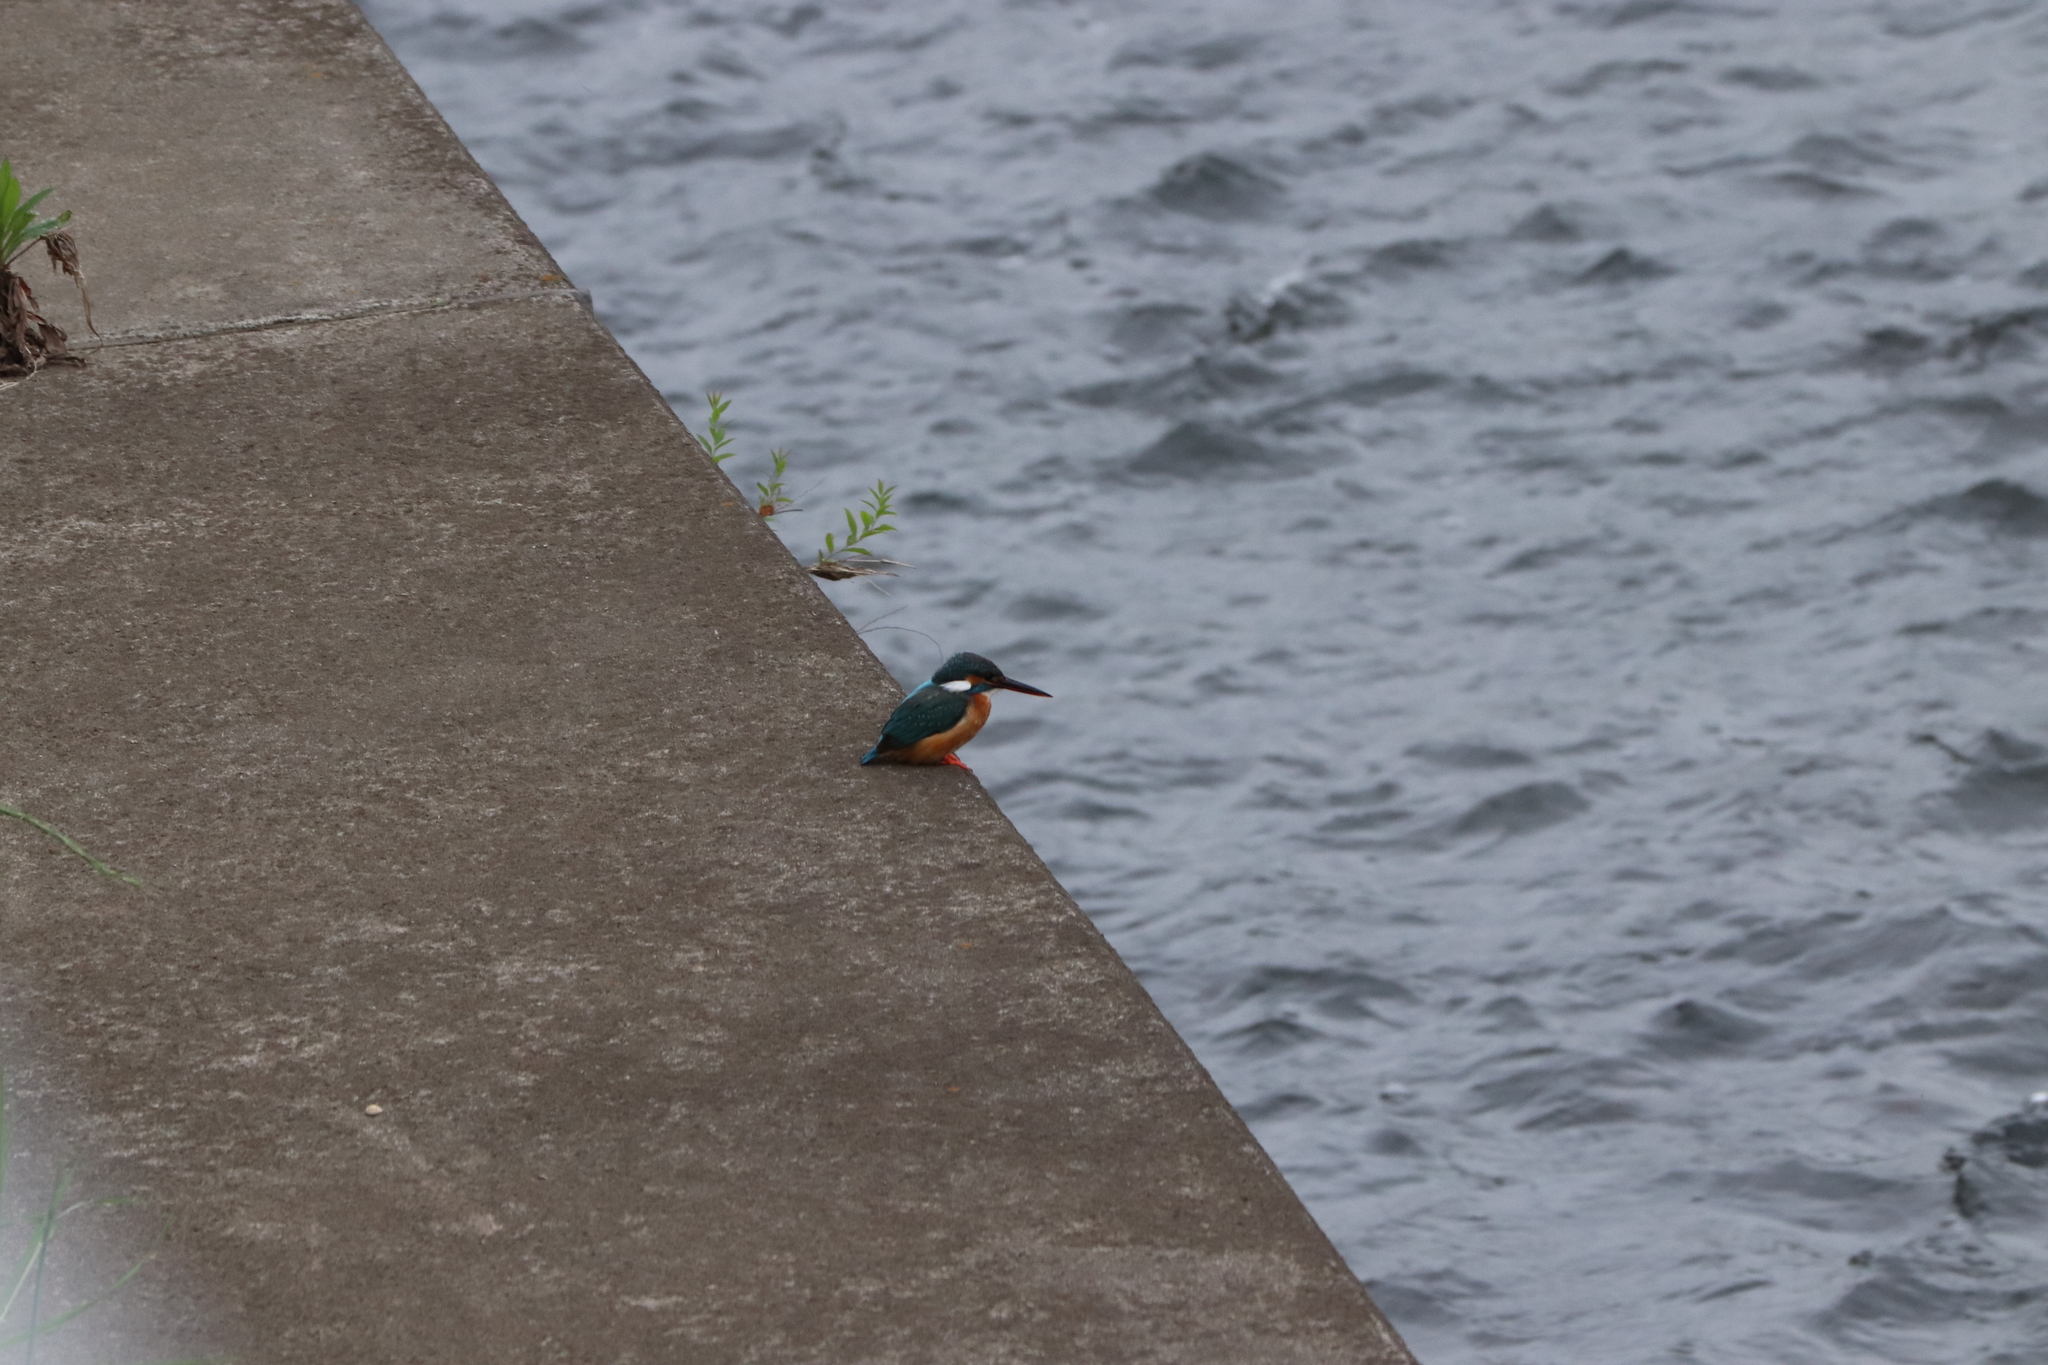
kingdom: Animalia
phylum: Chordata
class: Aves
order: Coraciiformes
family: Alcedinidae
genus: Alcedo
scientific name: Alcedo atthis
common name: Common kingfisher
